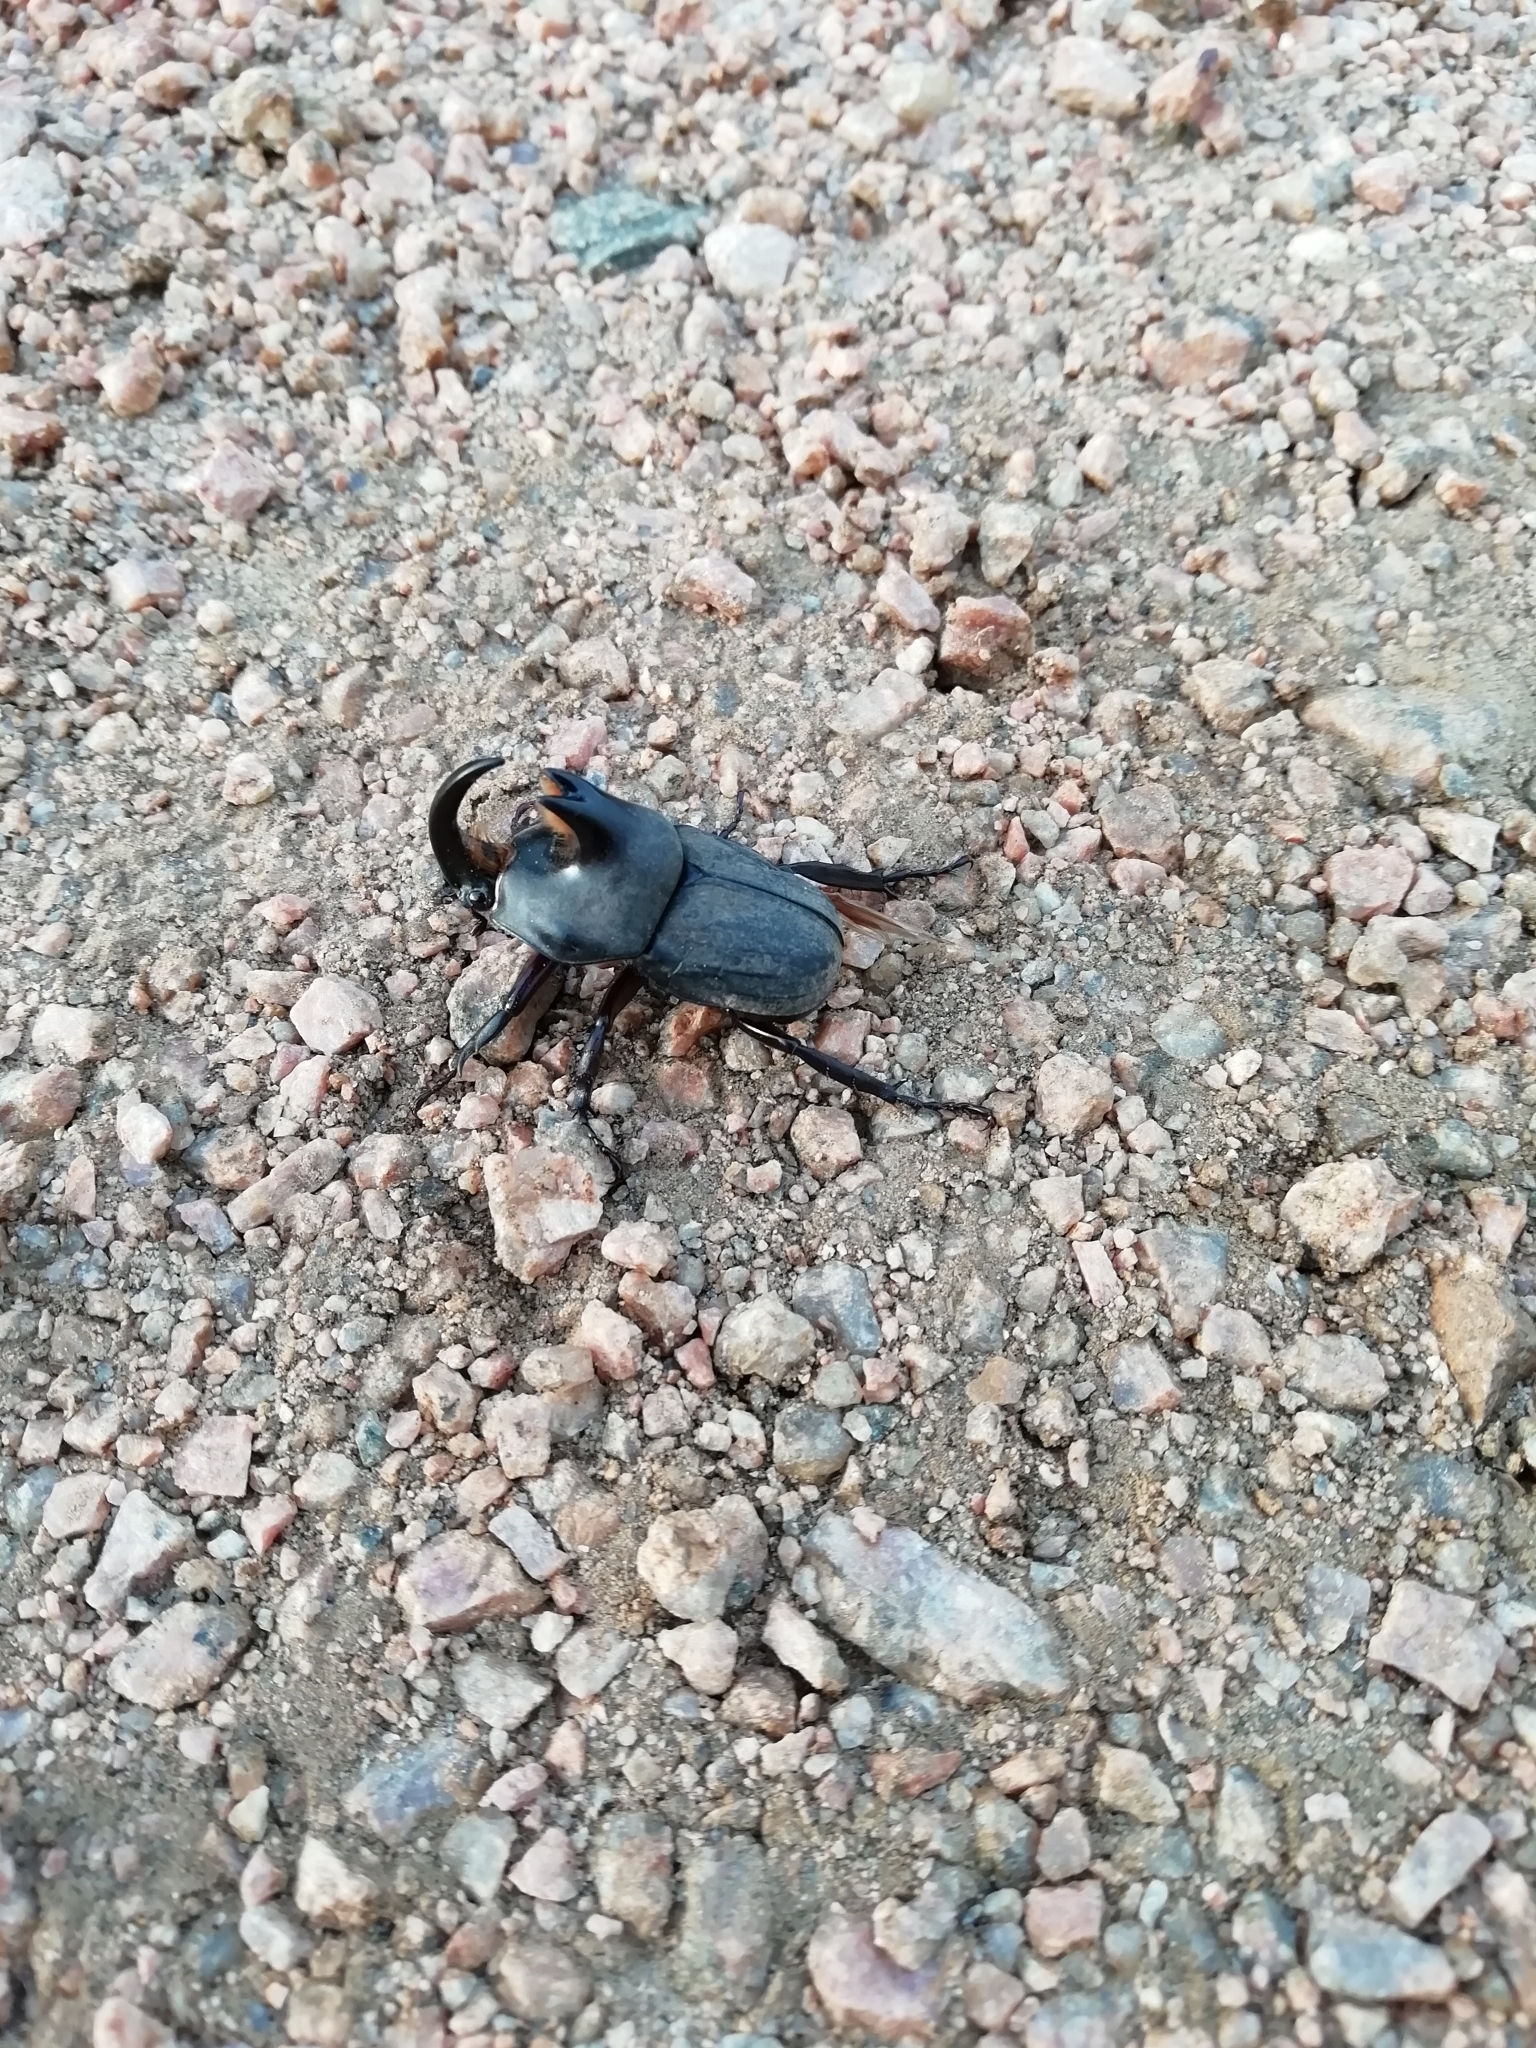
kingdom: Animalia
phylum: Arthropoda
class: Insecta
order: Coleoptera
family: Scarabaeidae
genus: Diloboderus
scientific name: Diloboderus abderus
